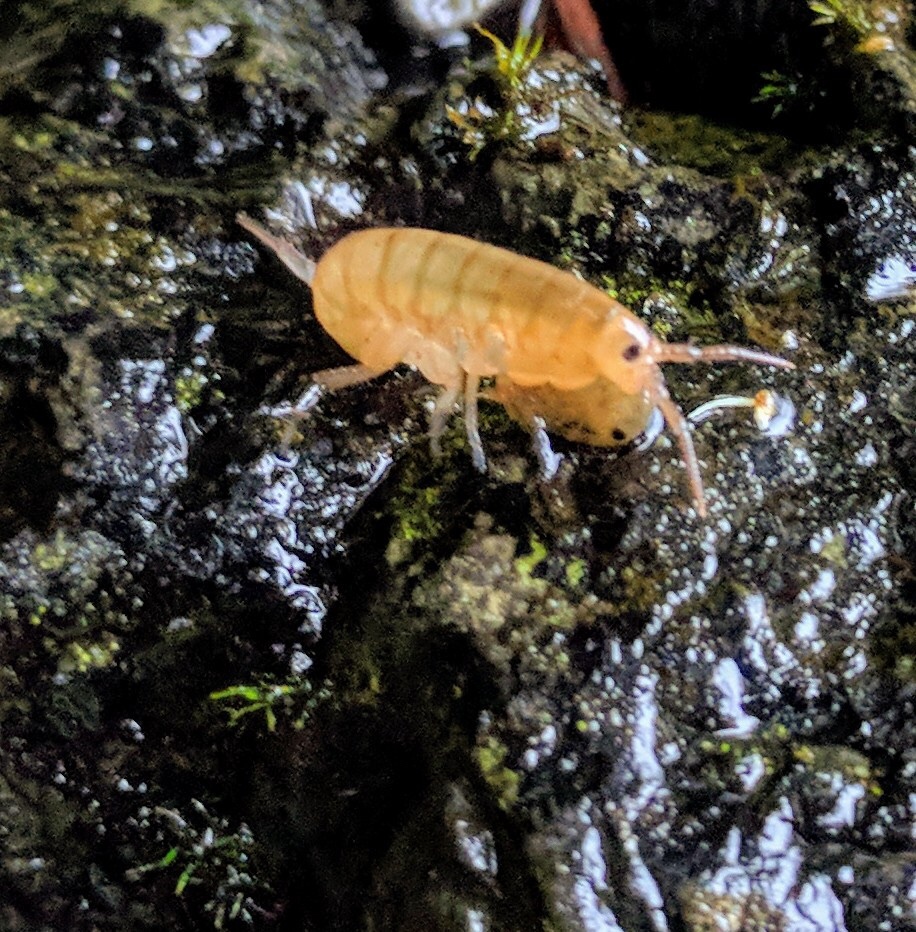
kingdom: Animalia
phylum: Arthropoda
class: Malacostraca
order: Amphipoda
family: Talitridae
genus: Traskorchestia
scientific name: Traskorchestia traskiana
